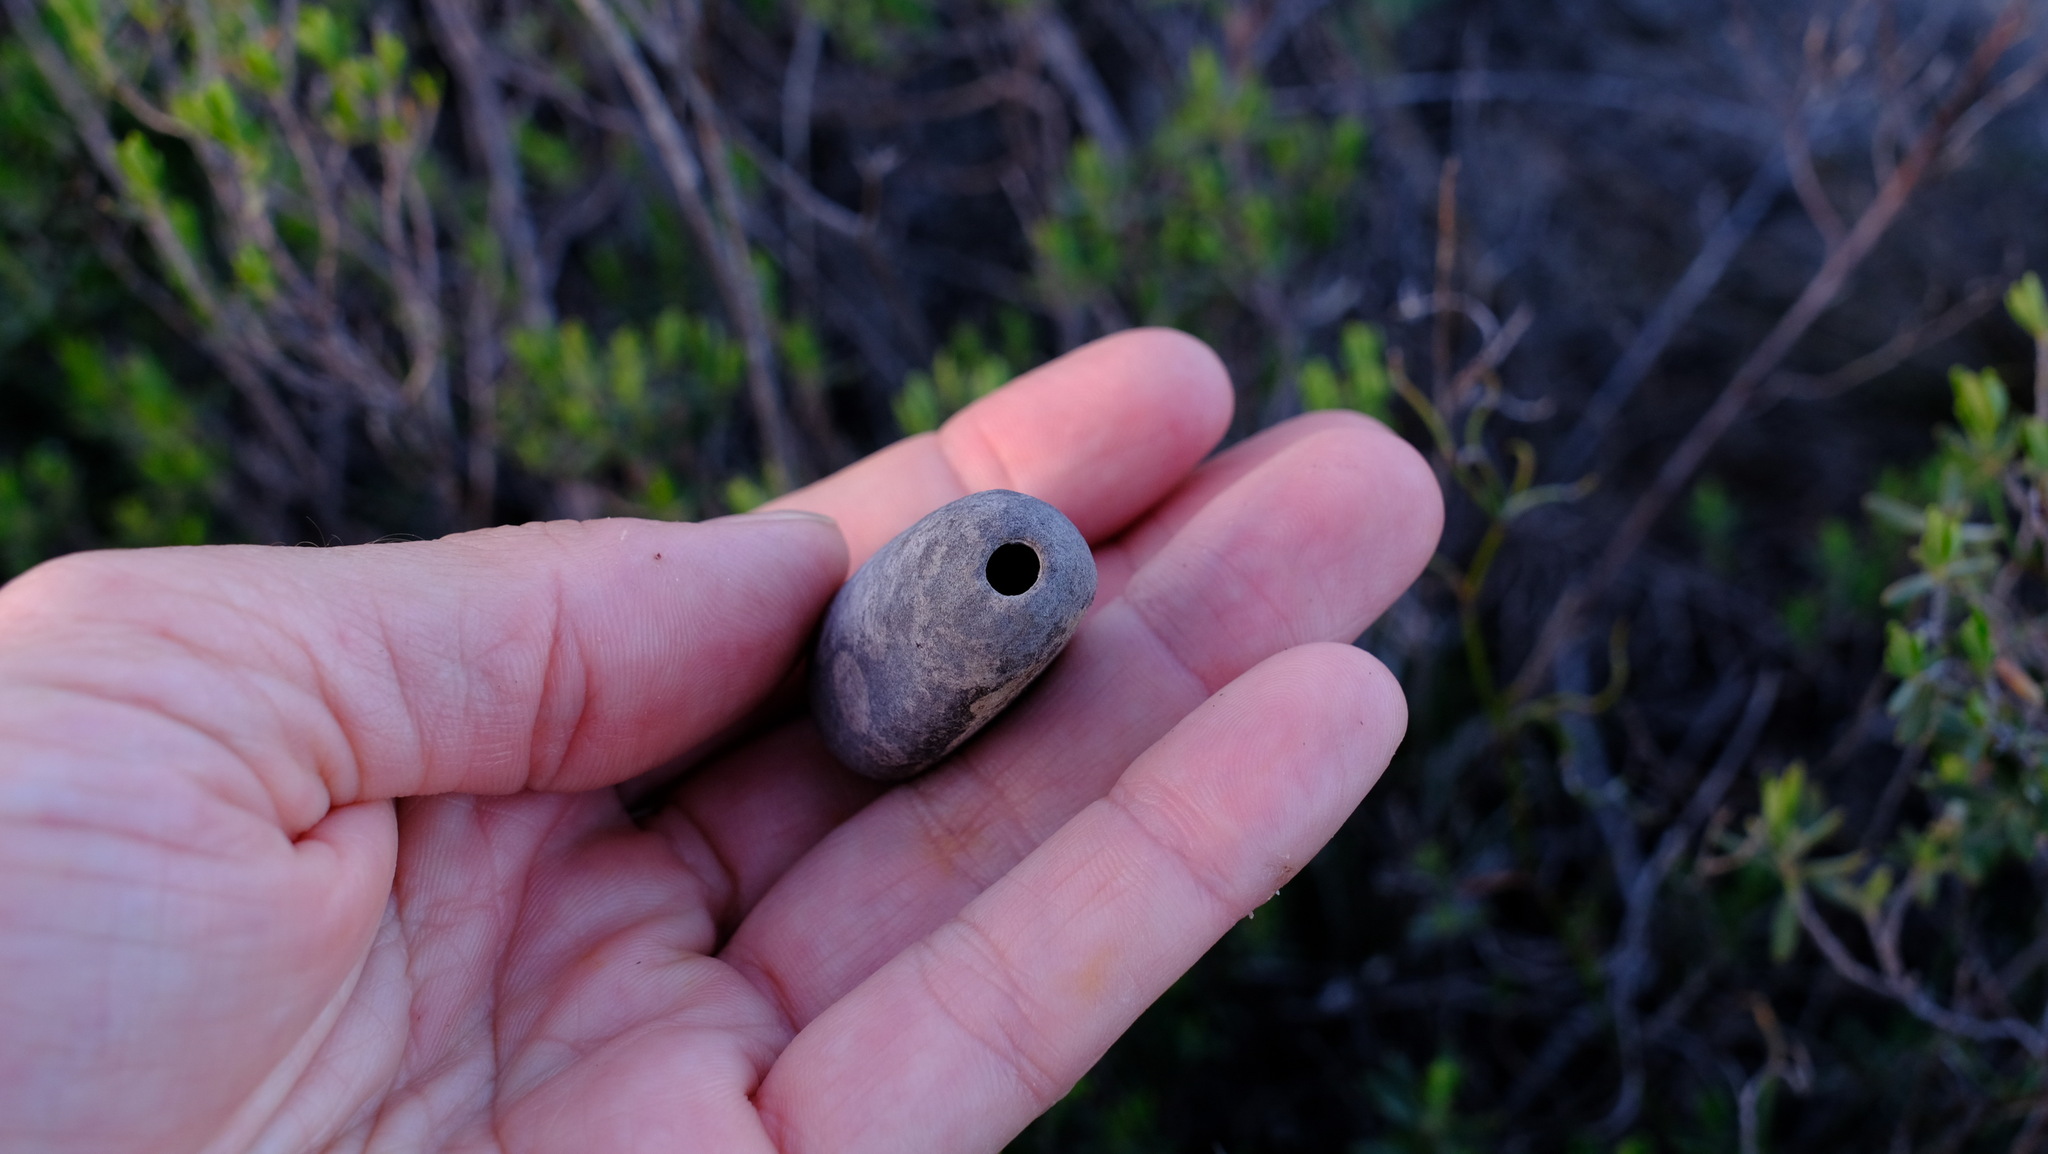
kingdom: Plantae
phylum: Tracheophyta
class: Cycadopsida
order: Cycadales
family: Zamiaceae
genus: Macrozamia
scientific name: Macrozamia fraseri
